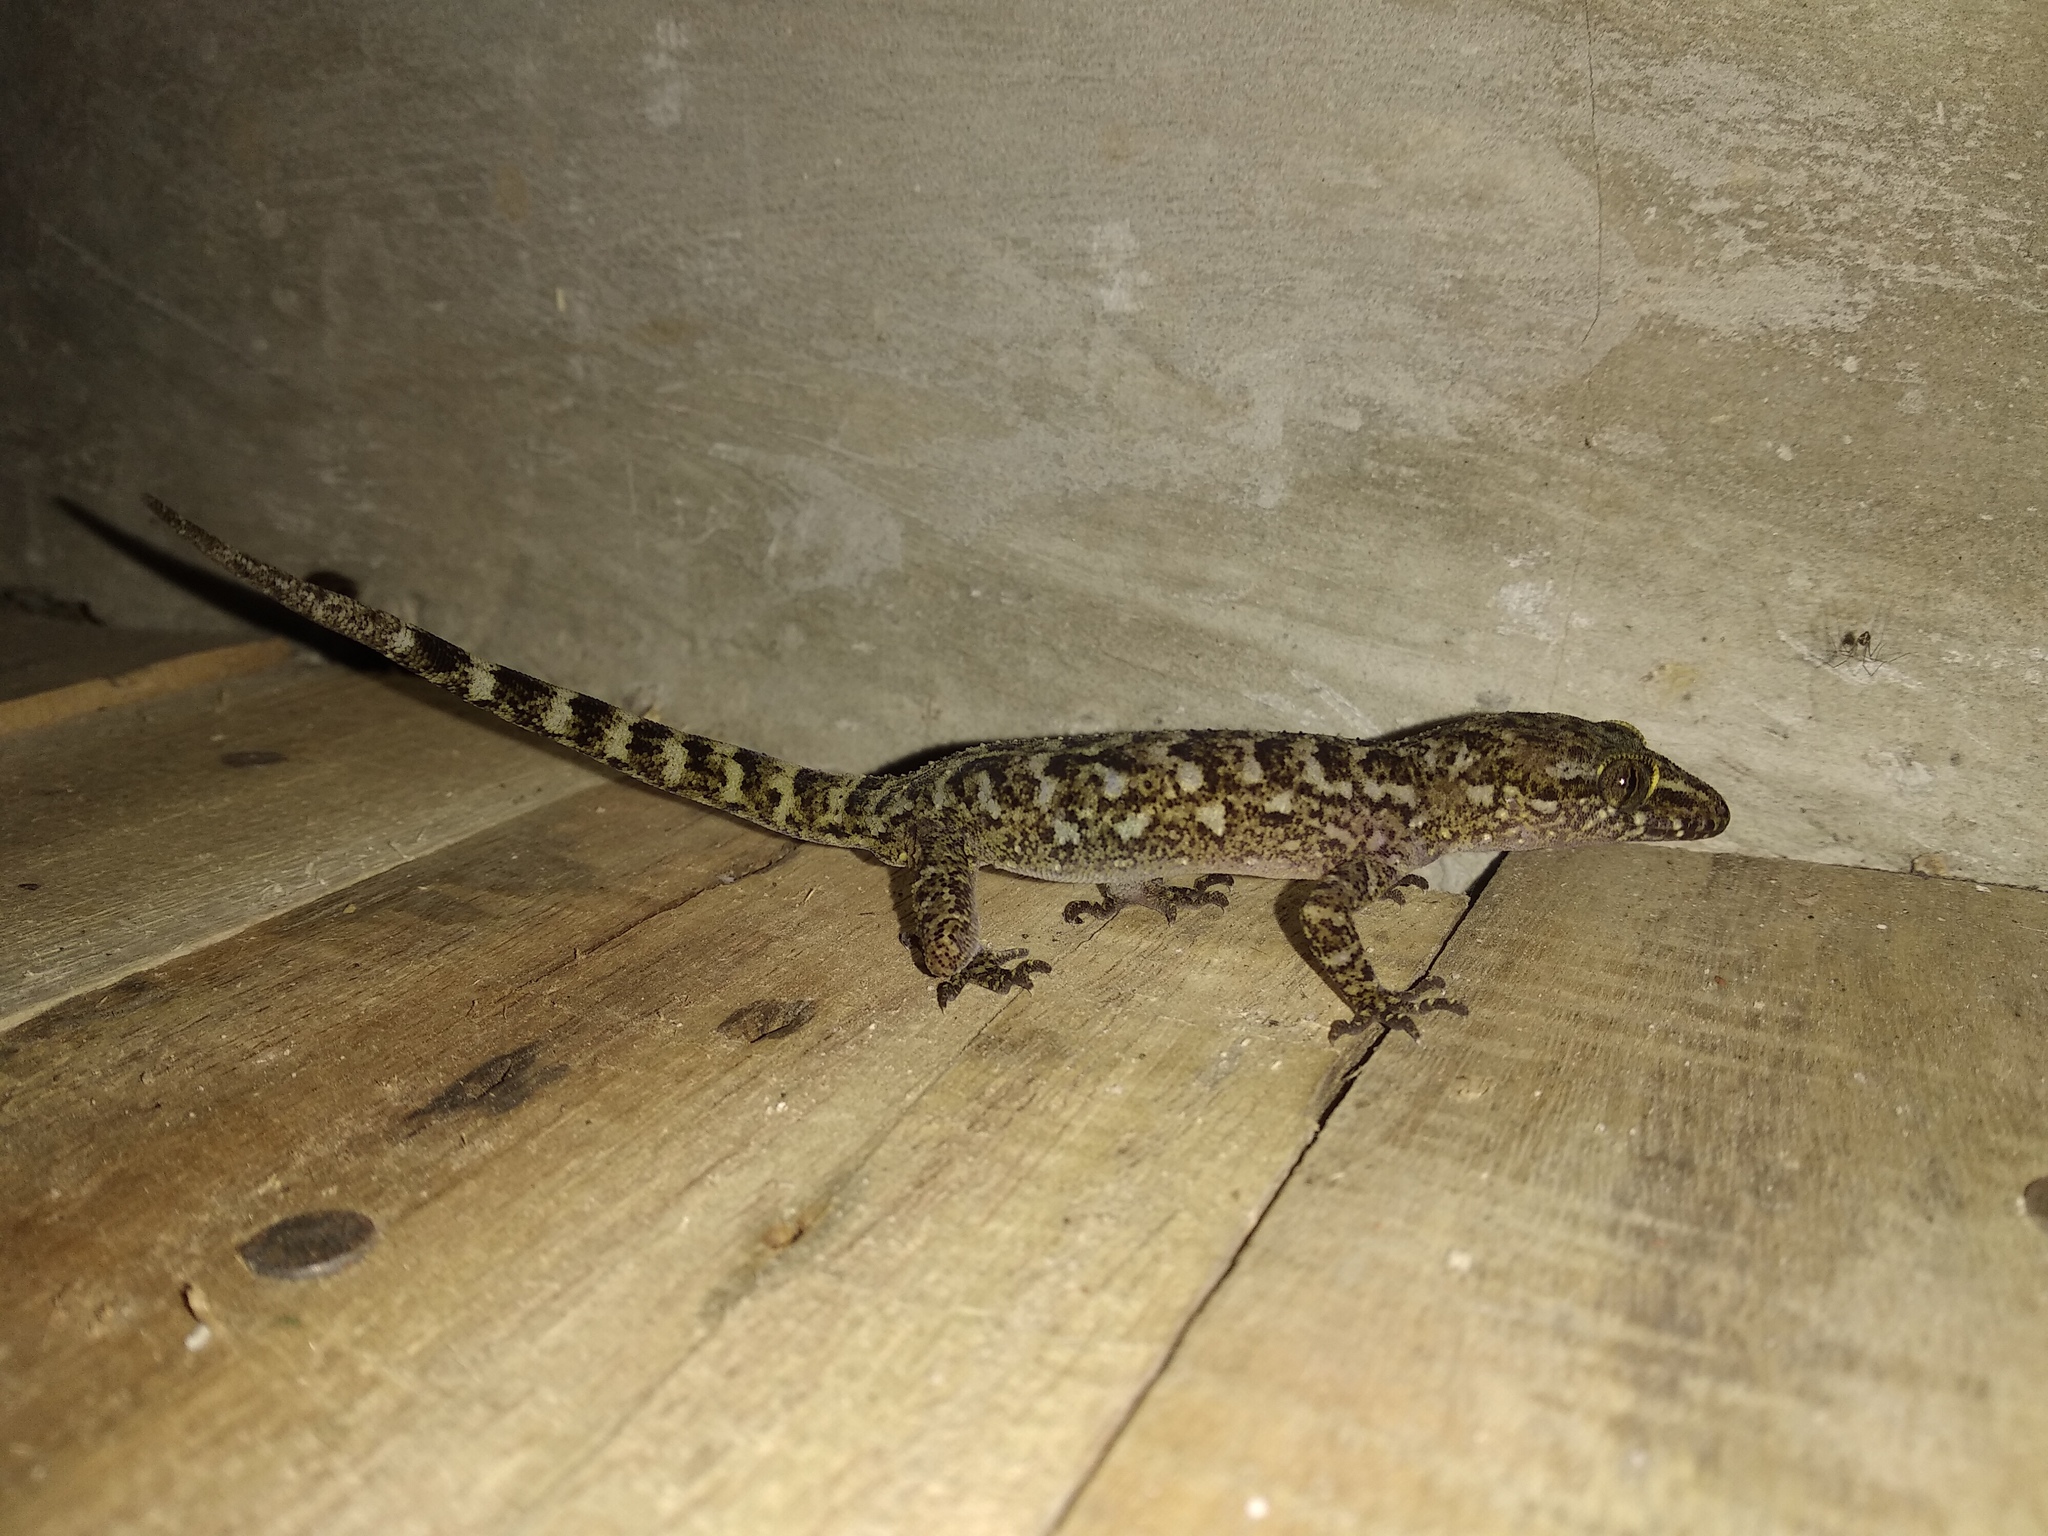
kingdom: Animalia
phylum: Chordata
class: Squamata
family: Gekkonidae
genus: Cyrtodactylus
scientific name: Cyrtodactylus marmoratus
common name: Marbled bow-fingered gecko
